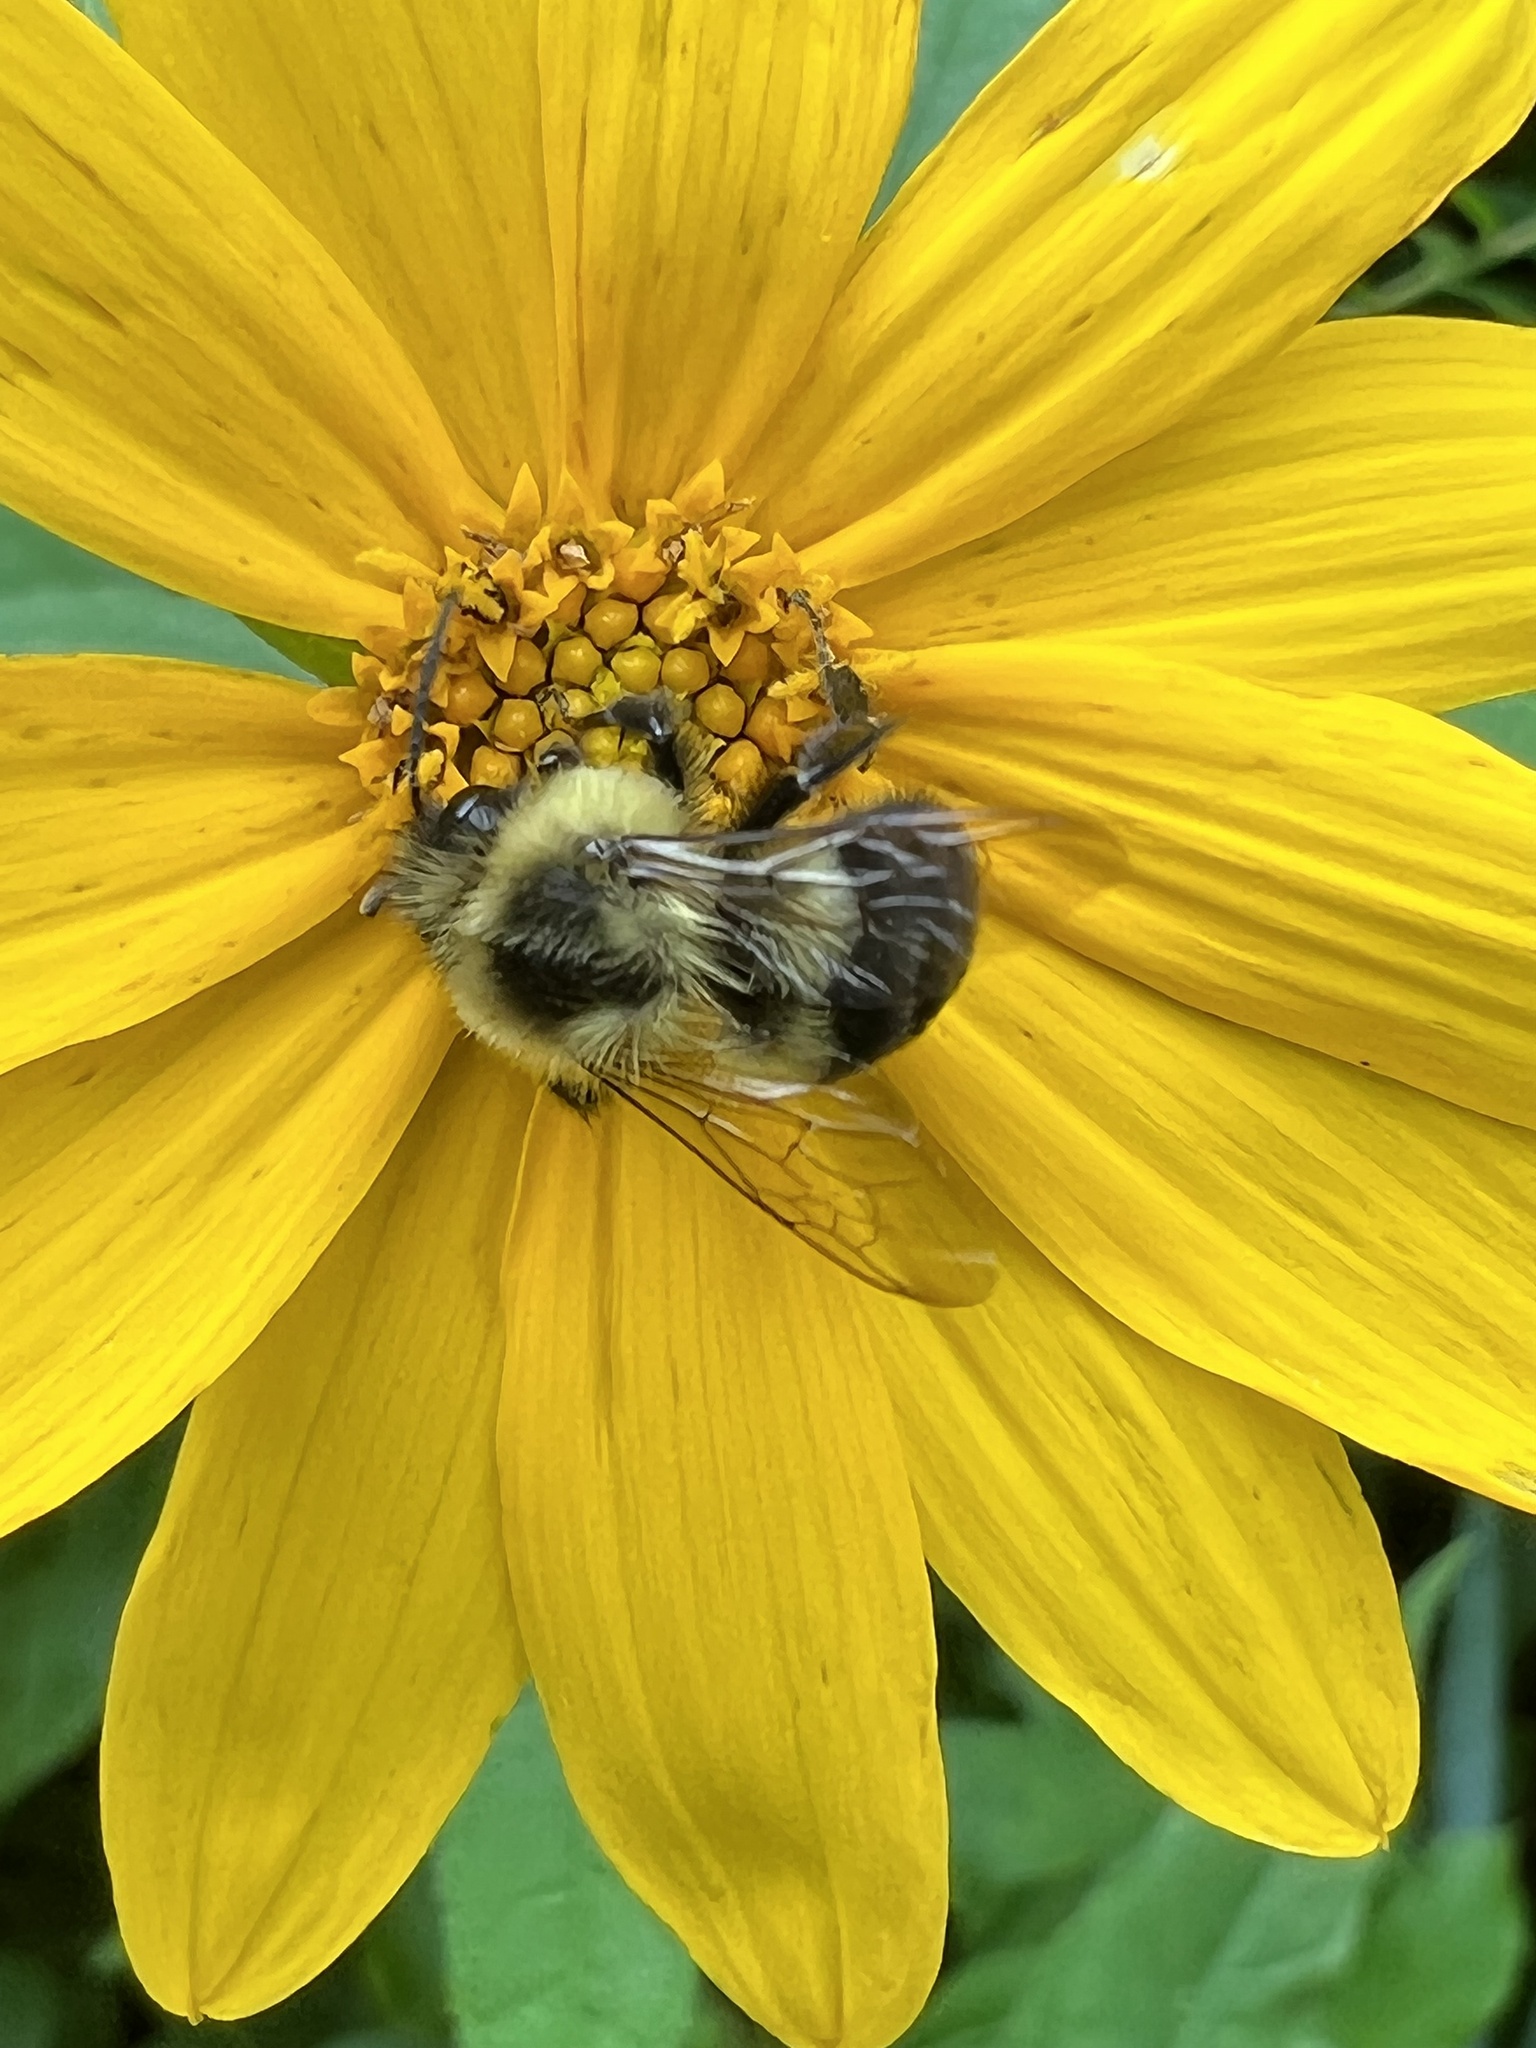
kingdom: Animalia
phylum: Arthropoda
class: Insecta
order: Hymenoptera
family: Apidae
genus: Bombus
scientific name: Bombus impatiens
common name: Common eastern bumble bee
